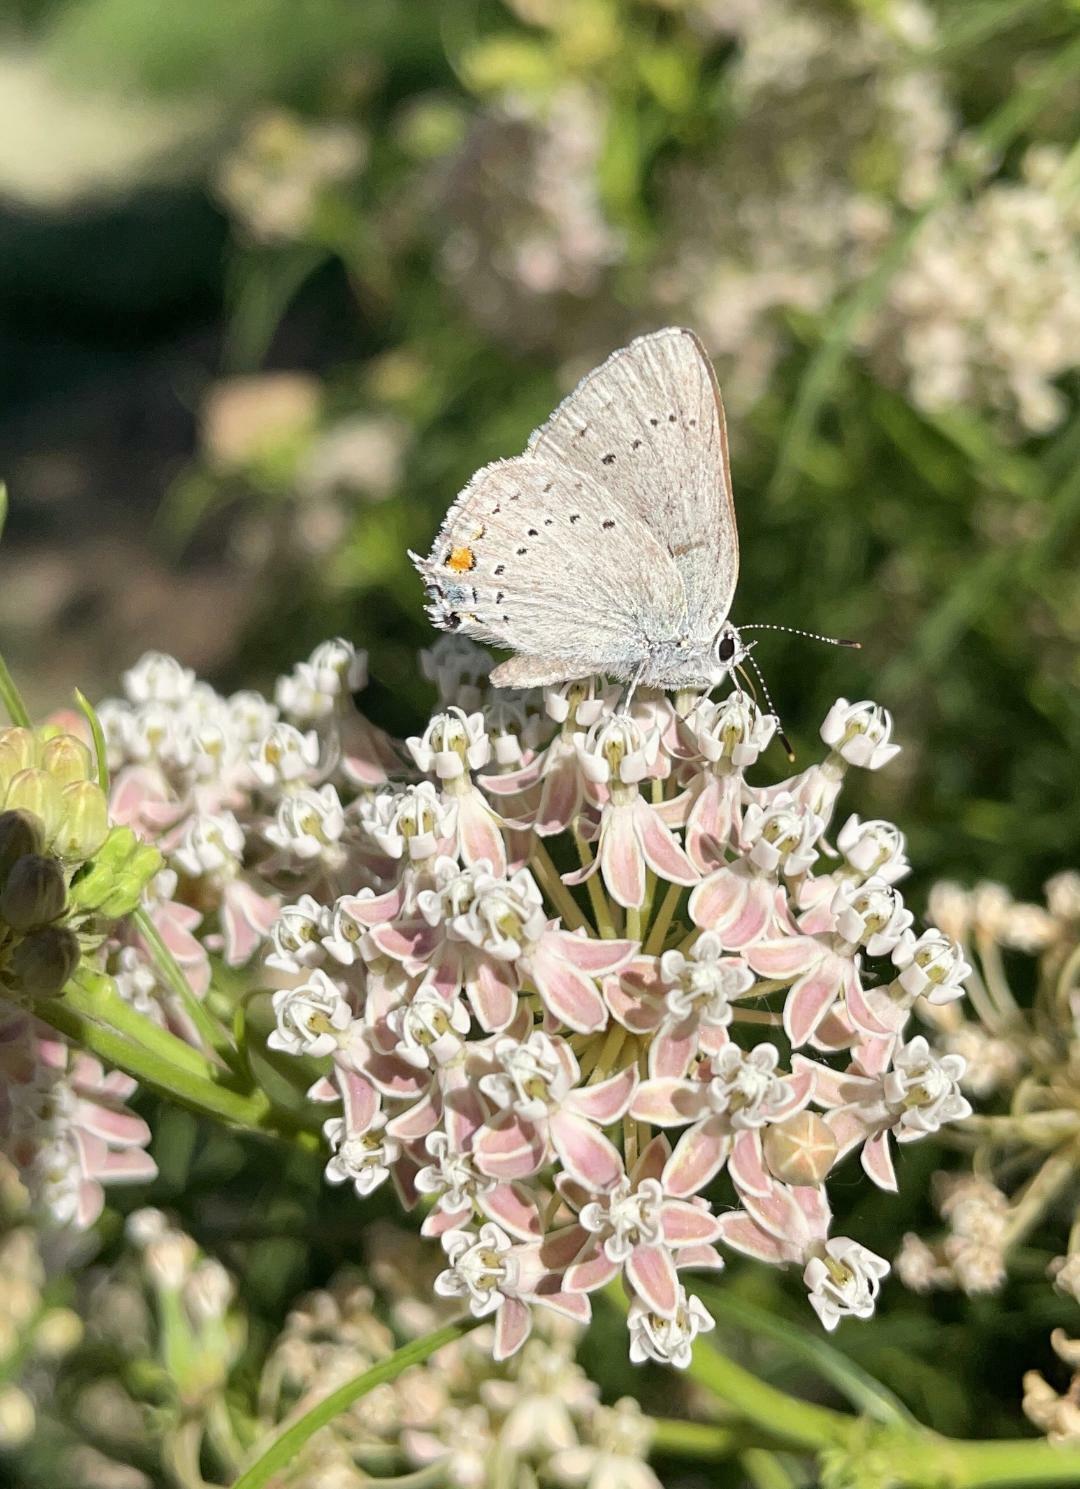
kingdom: Animalia
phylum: Arthropoda
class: Insecta
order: Lepidoptera
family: Lycaenidae
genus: Strymon
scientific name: Strymon sylvinus
